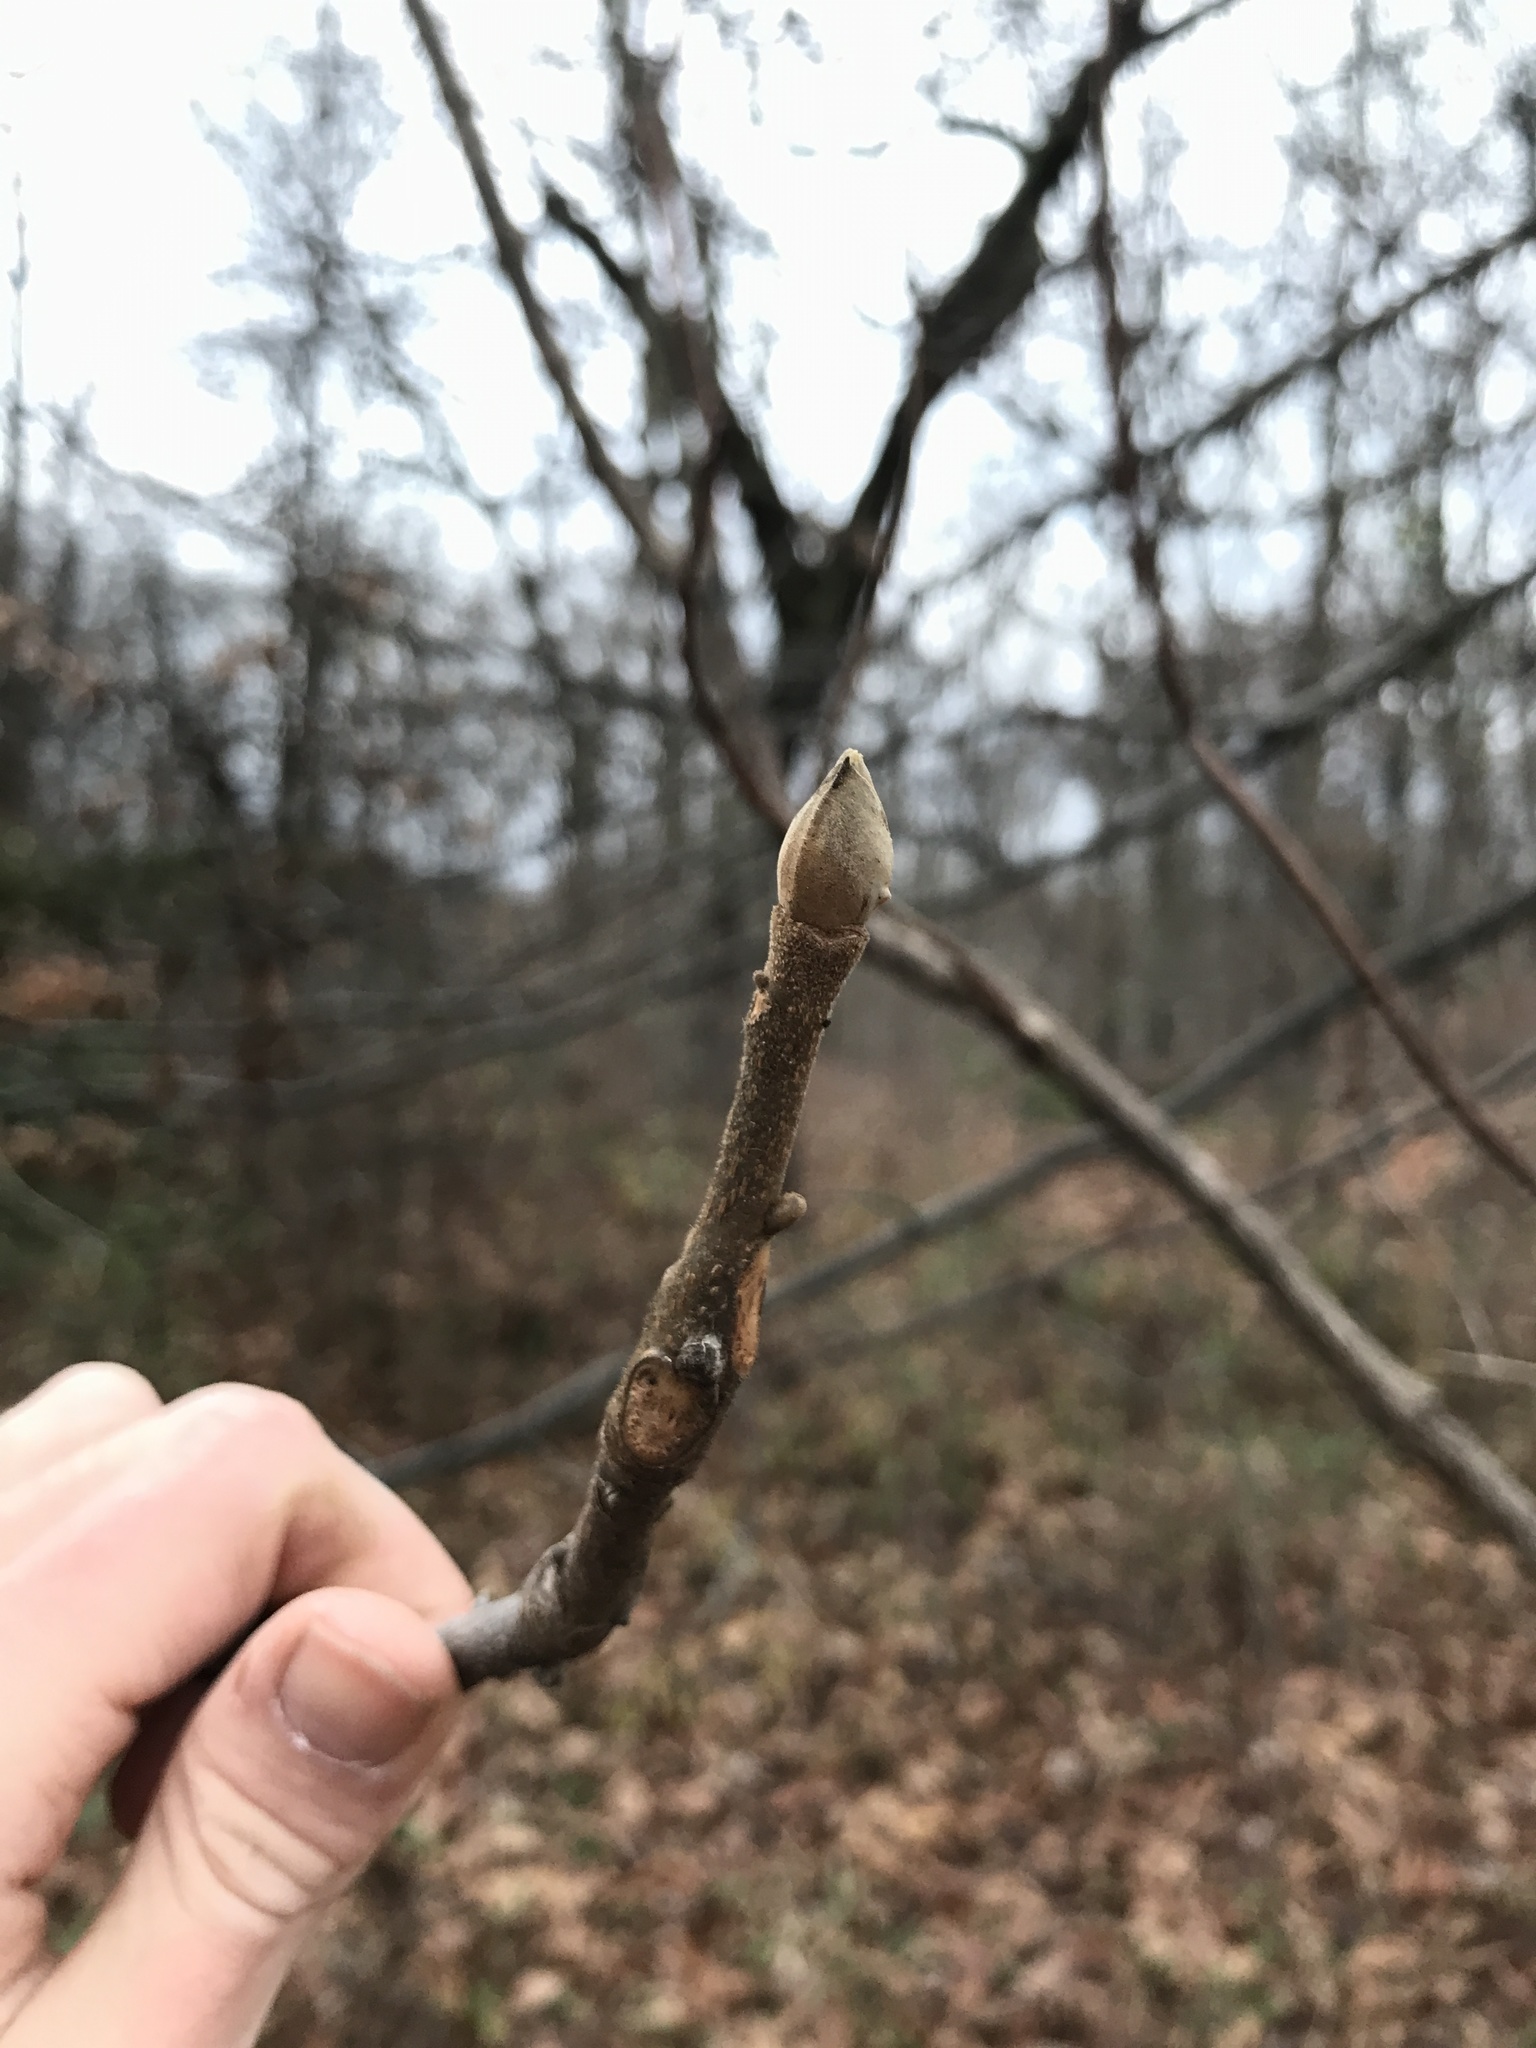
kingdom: Plantae
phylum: Tracheophyta
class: Magnoliopsida
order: Fagales
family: Juglandaceae
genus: Carya
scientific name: Carya alba
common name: Mockernut hickory
